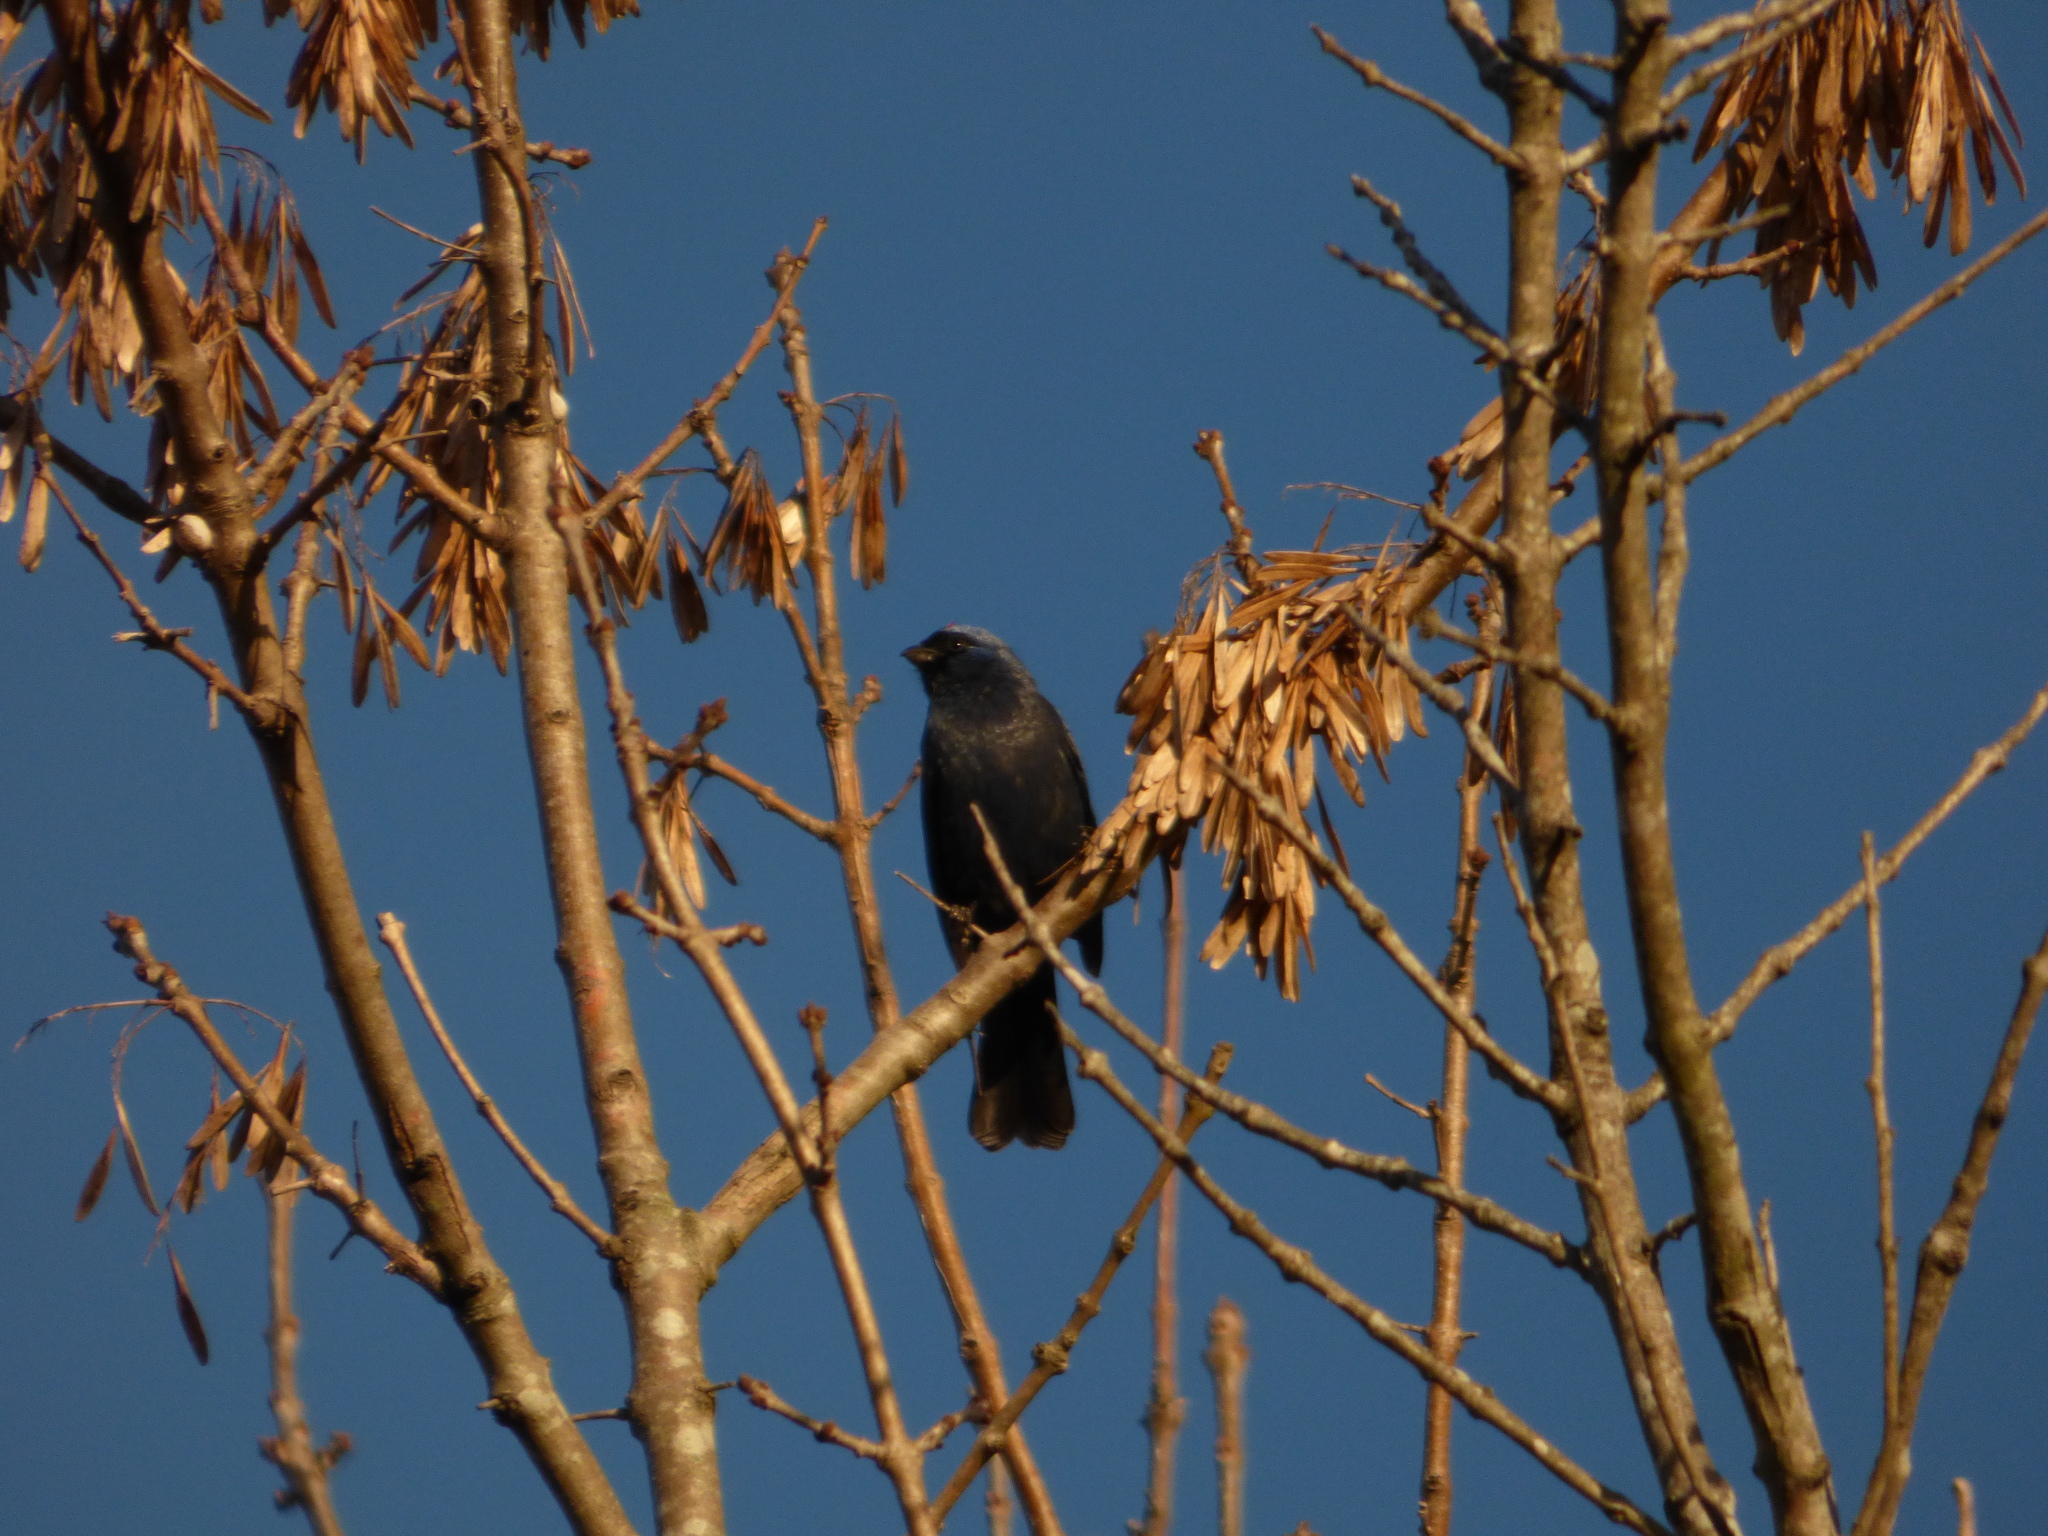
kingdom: Animalia
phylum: Chordata
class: Aves
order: Passeriformes
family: Thraupidae
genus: Stephanophorus
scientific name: Stephanophorus diadematus
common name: Diademed tanager
